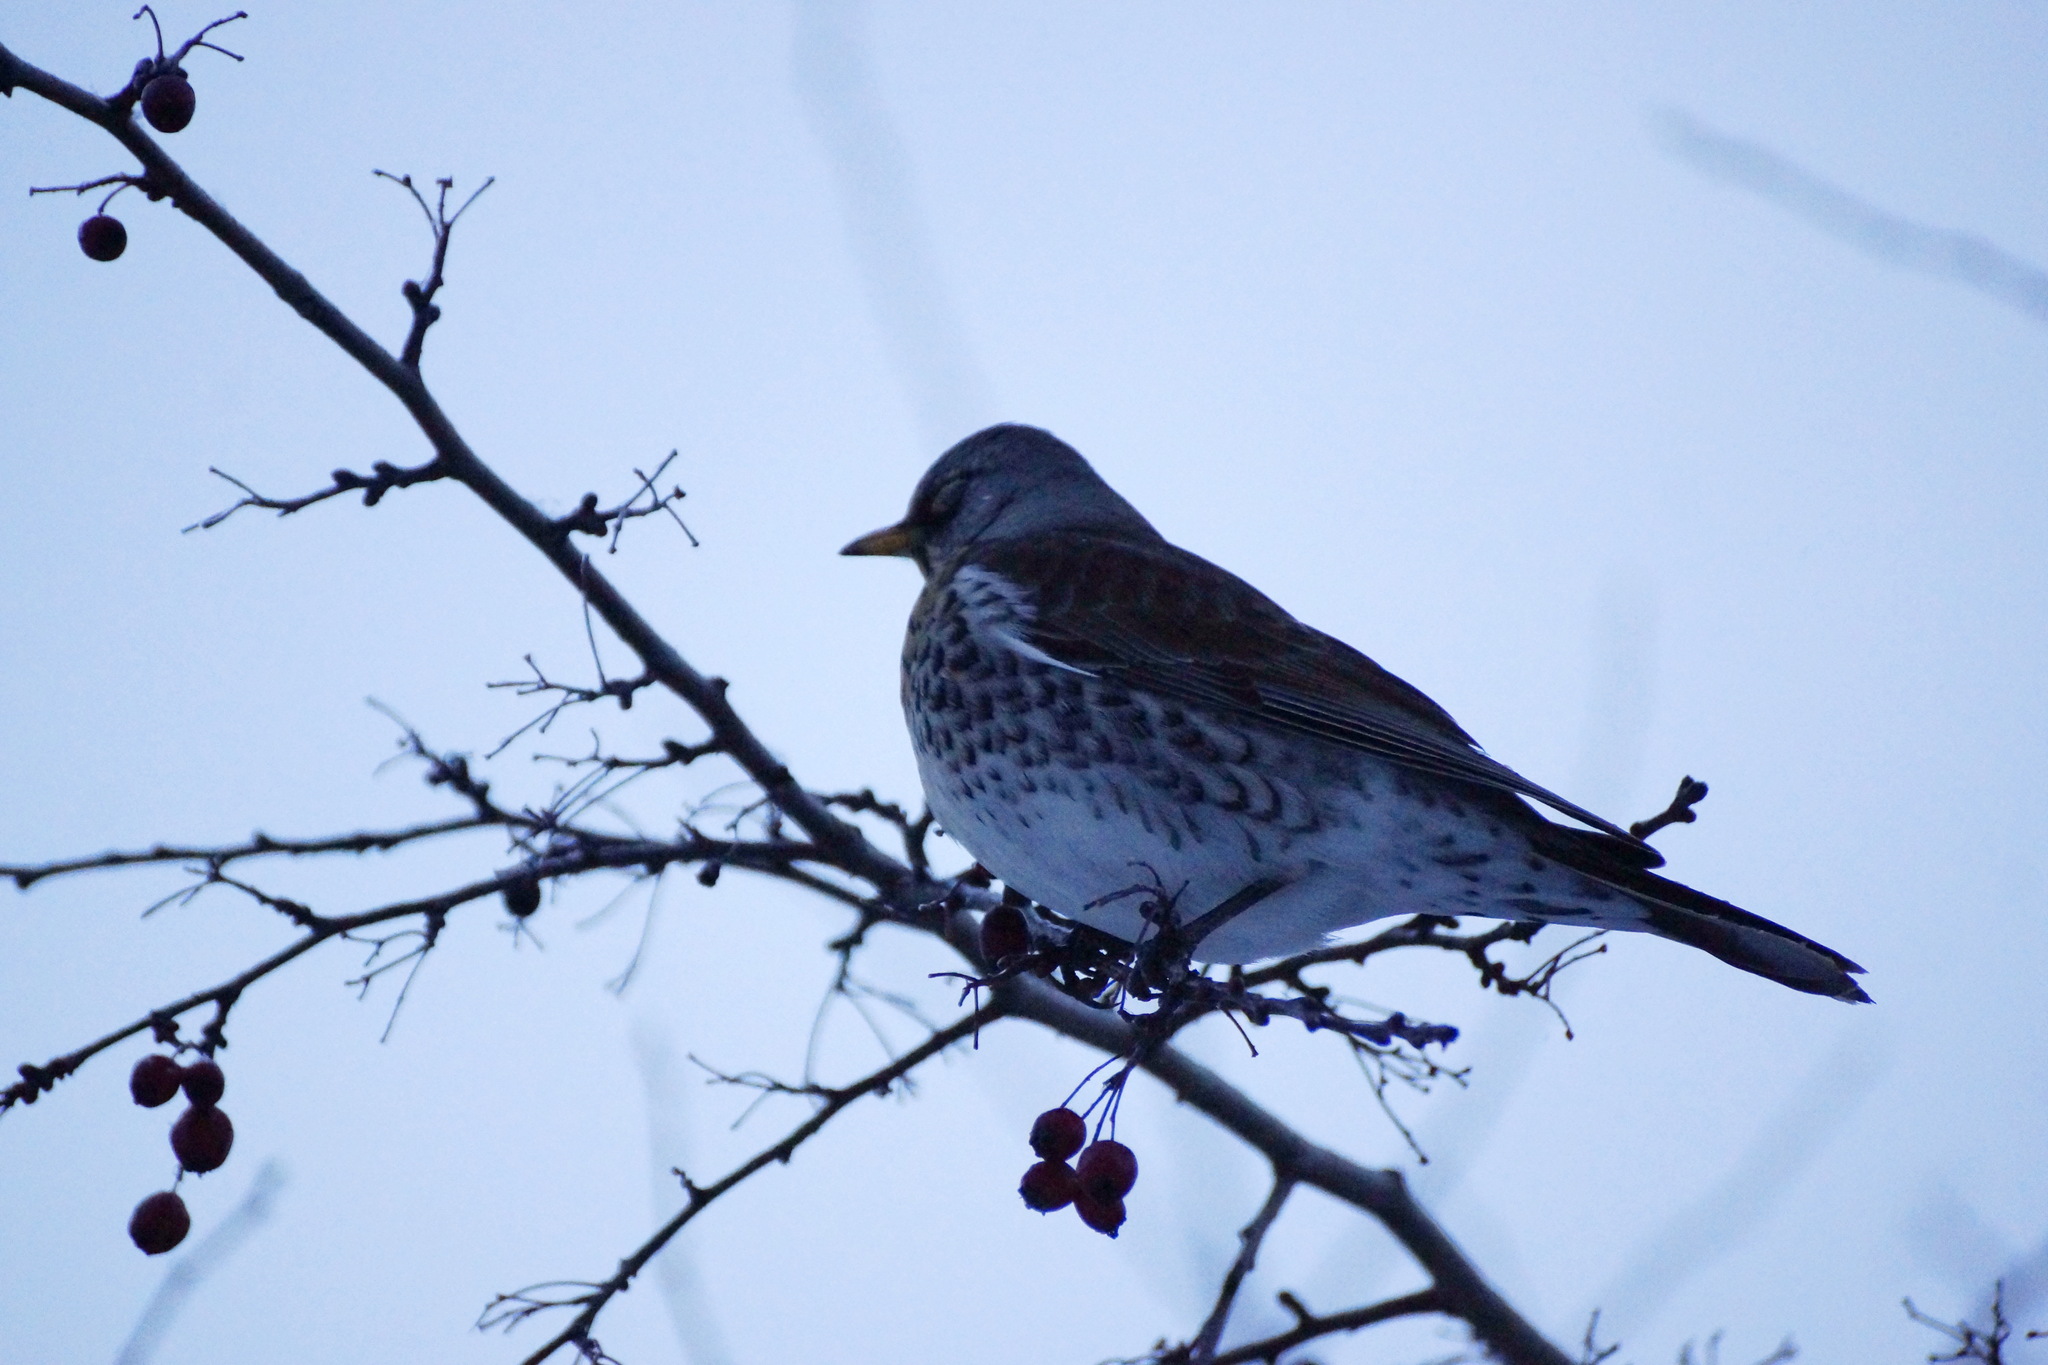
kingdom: Animalia
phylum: Chordata
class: Aves
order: Passeriformes
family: Turdidae
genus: Turdus
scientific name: Turdus pilaris
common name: Fieldfare
